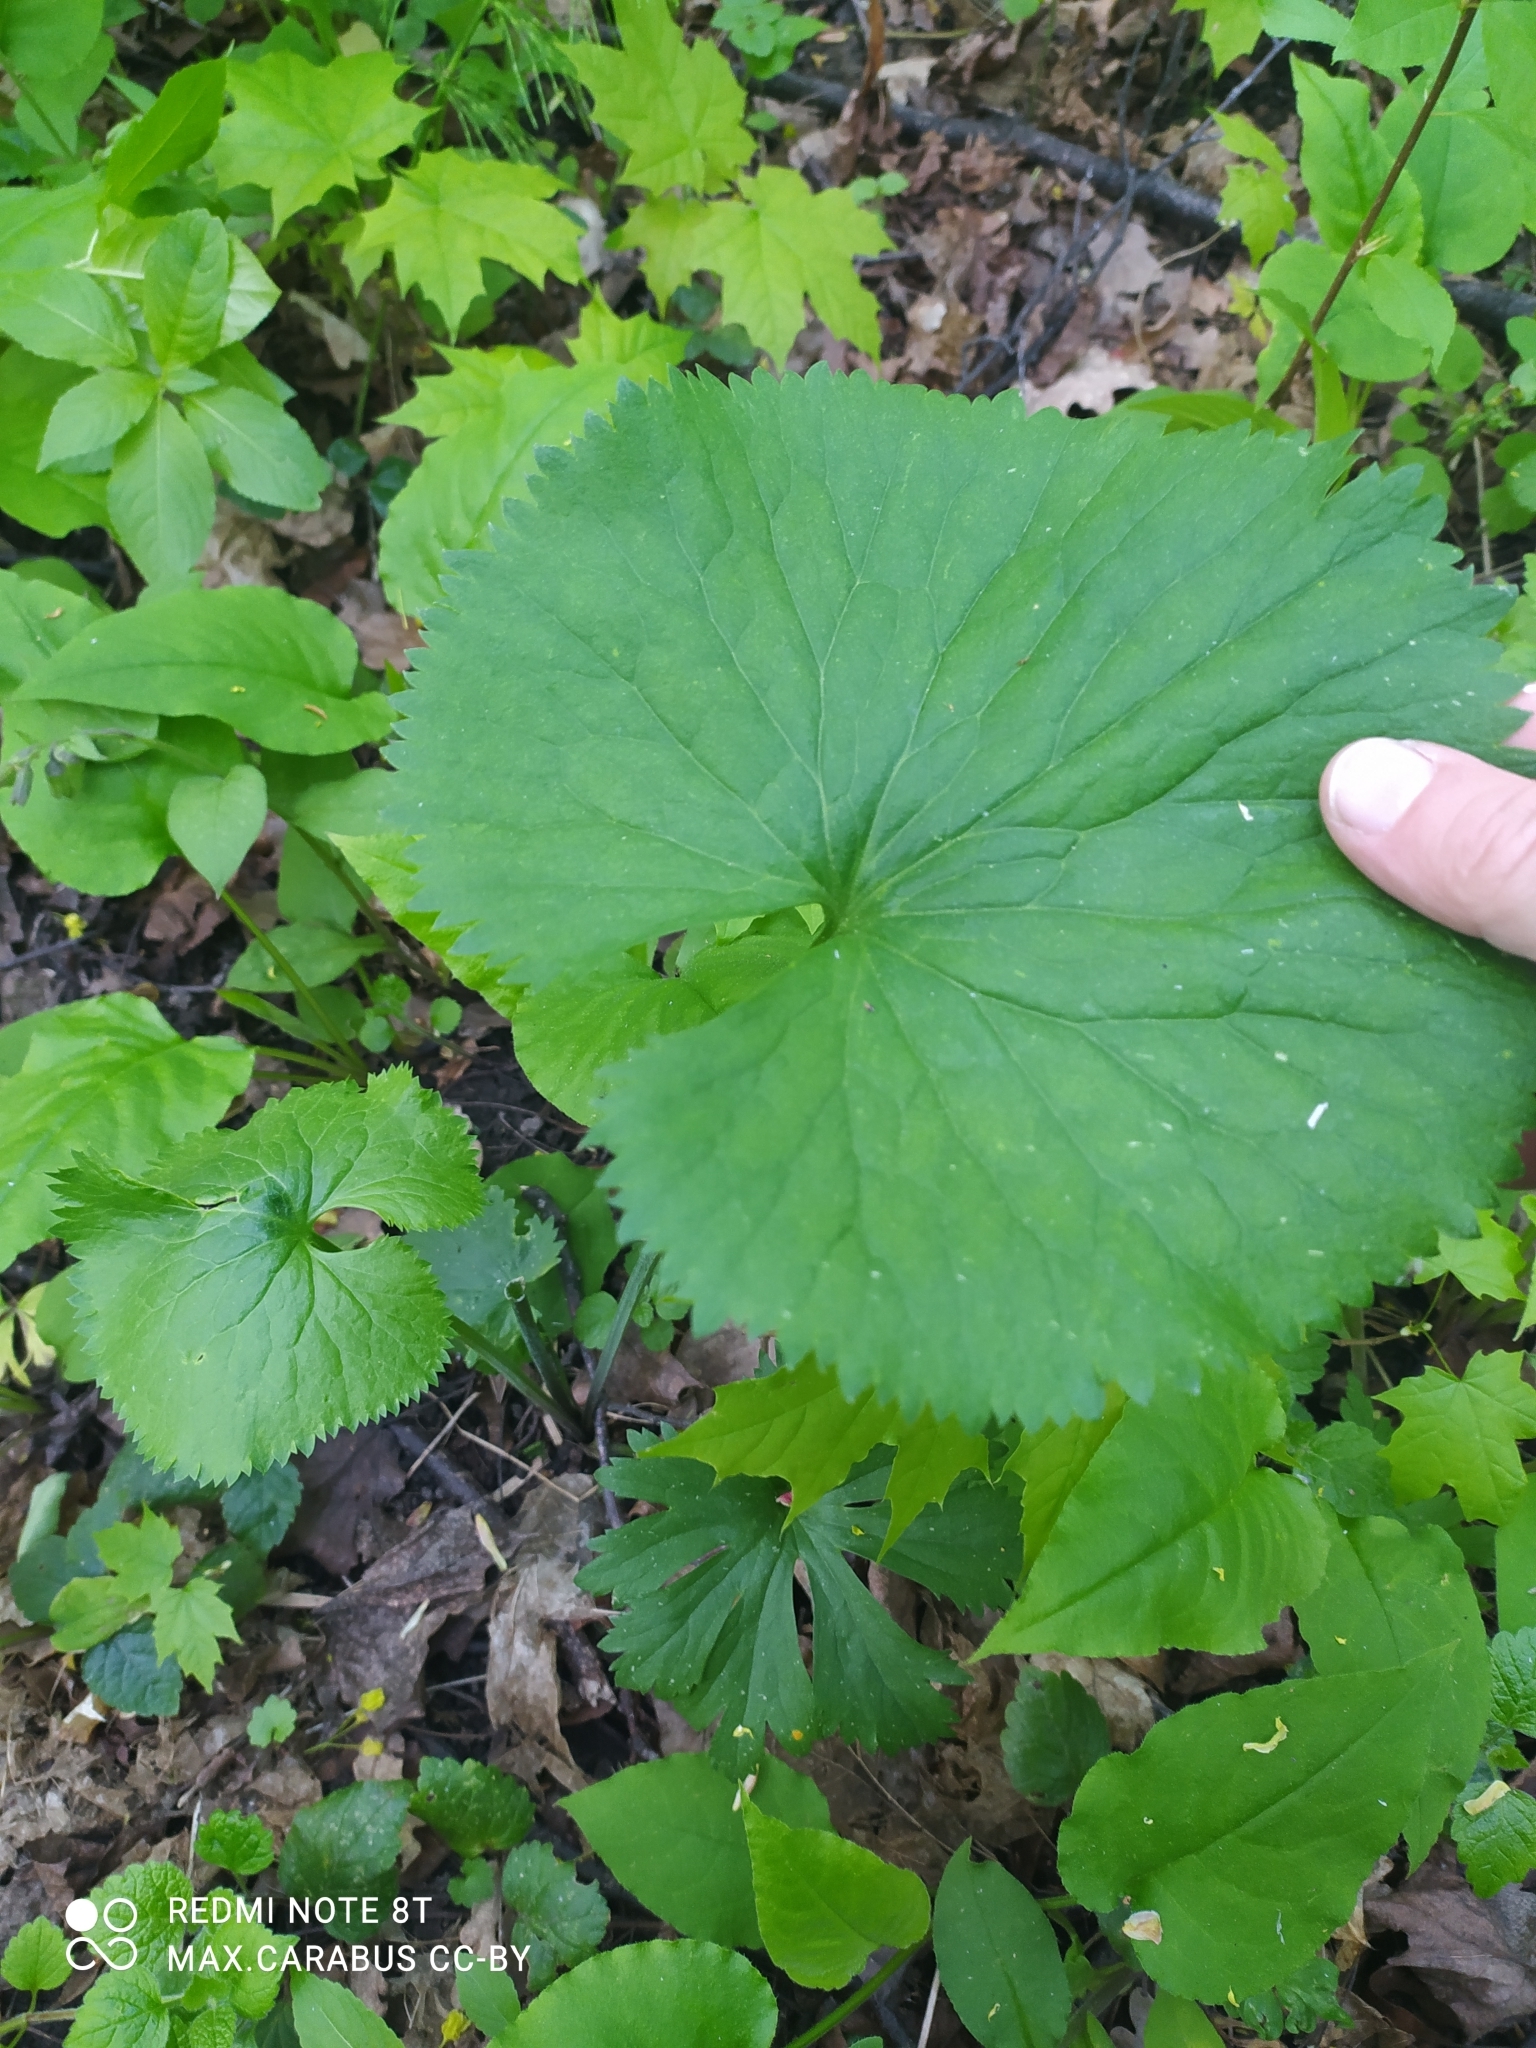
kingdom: Plantae
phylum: Tracheophyta
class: Magnoliopsida
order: Ranunculales
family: Ranunculaceae
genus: Ranunculus
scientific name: Ranunculus cassubicus
